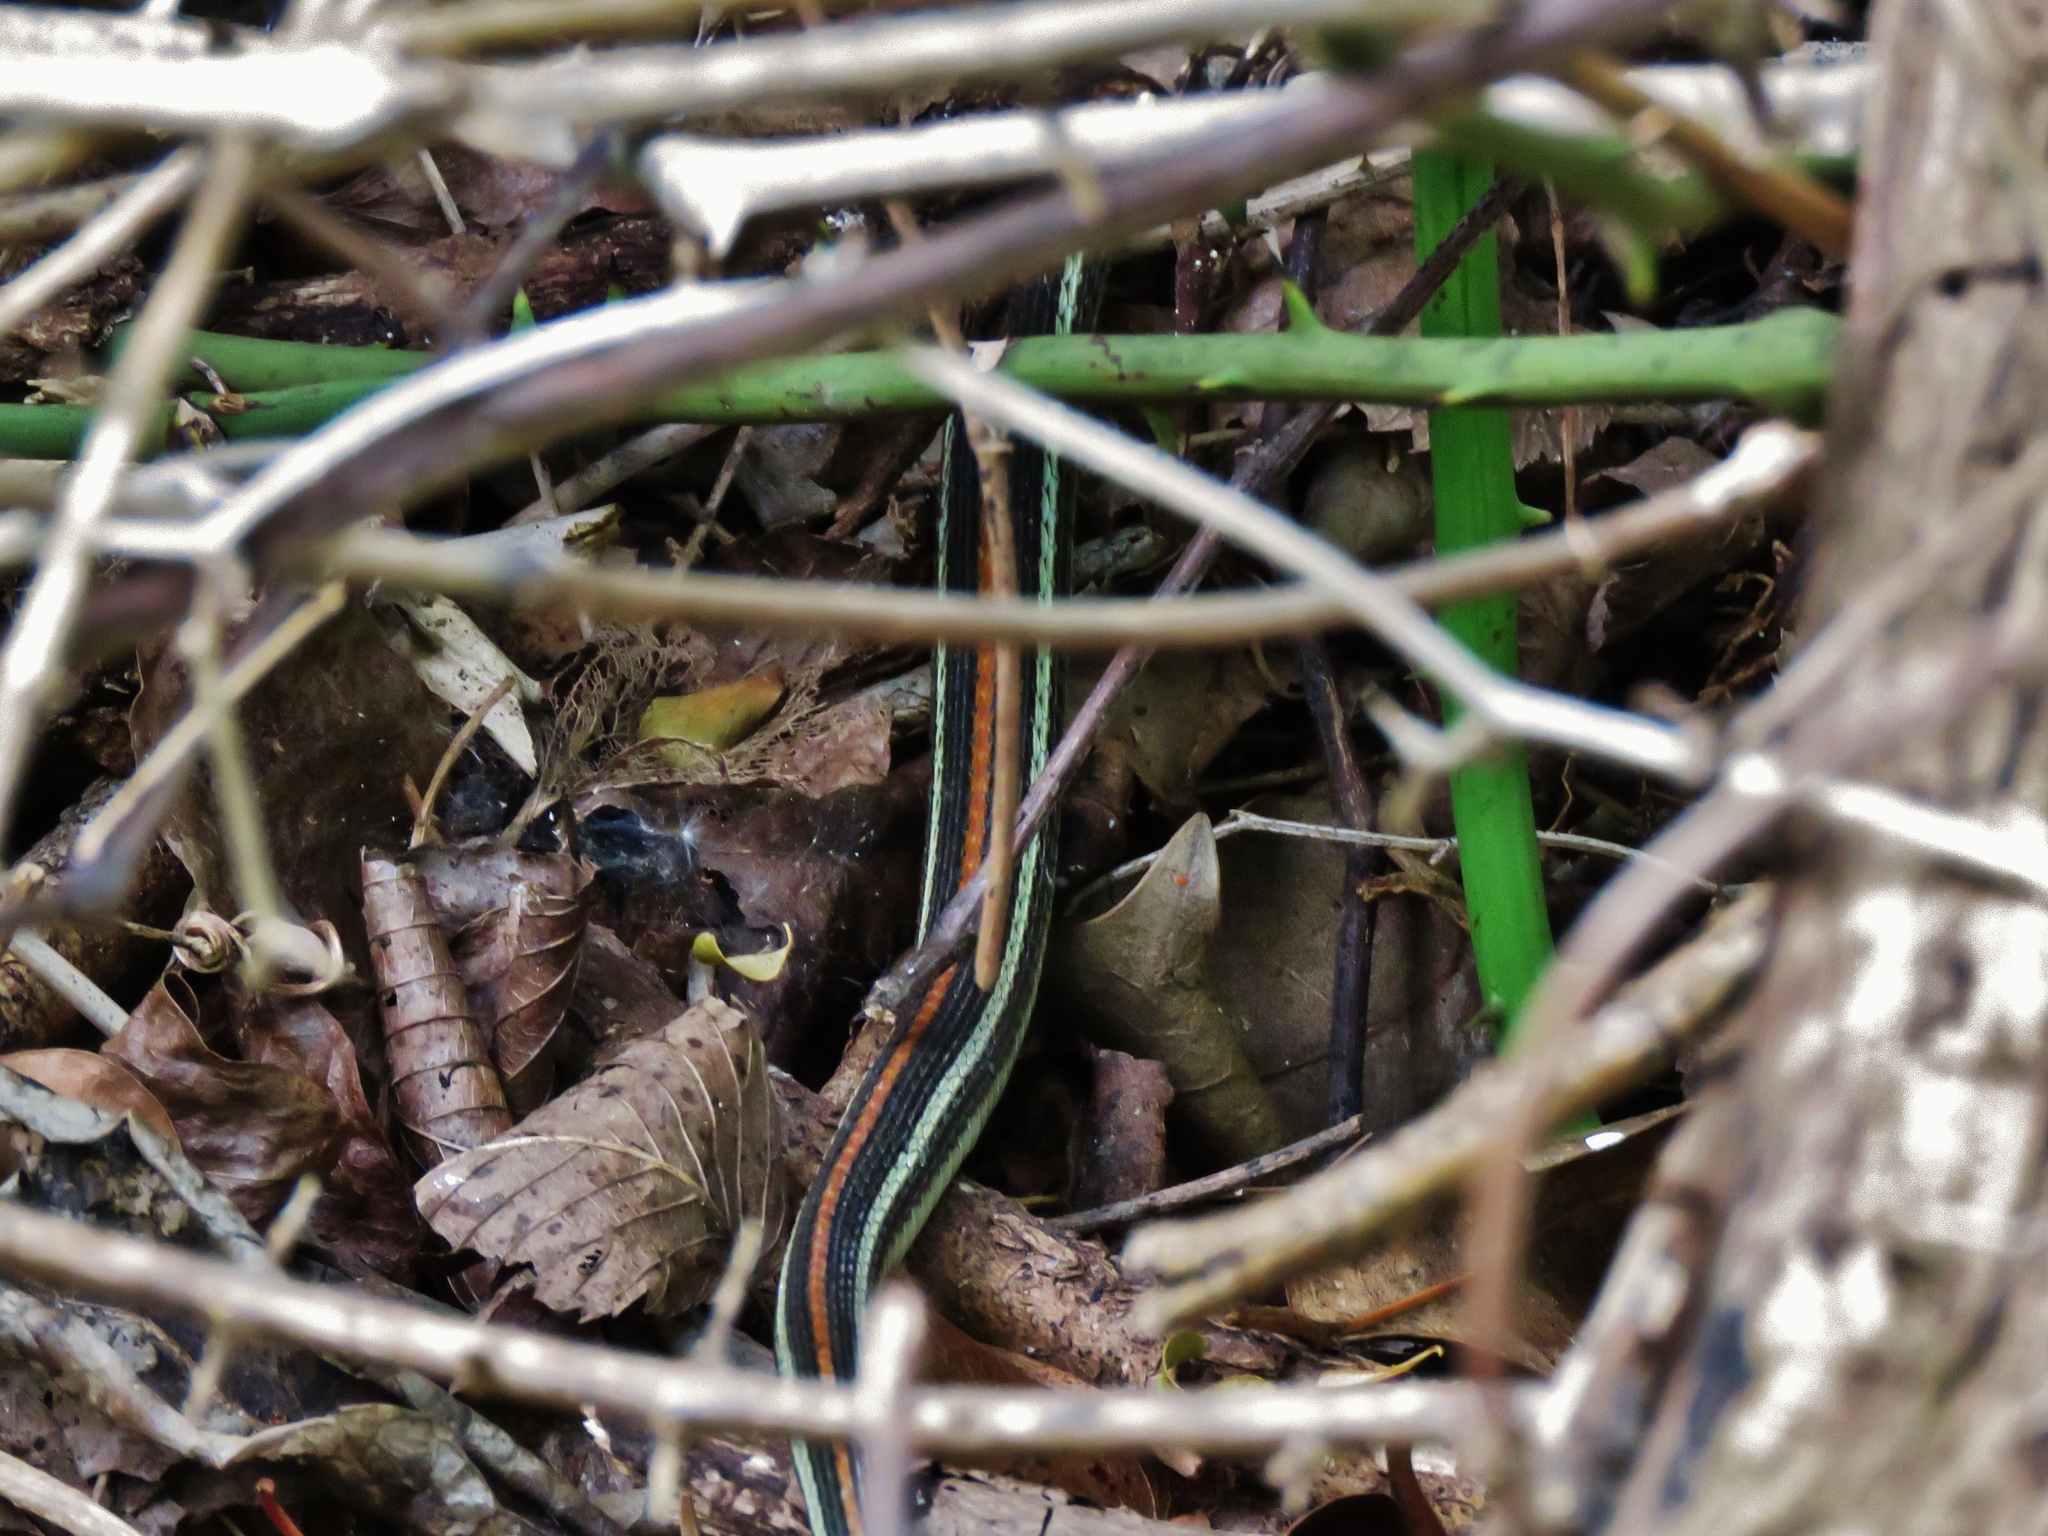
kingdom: Animalia
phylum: Chordata
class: Squamata
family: Colubridae
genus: Thamnophis
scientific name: Thamnophis proximus
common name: Western ribbon snake
